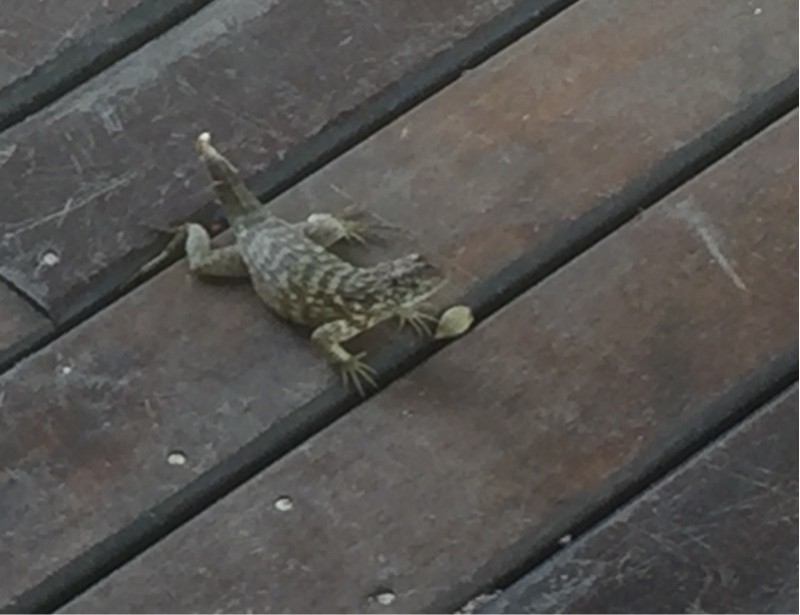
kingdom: Animalia
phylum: Chordata
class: Squamata
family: Leiocephalidae
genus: Leiocephalus
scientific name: Leiocephalus carinatus
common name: Northern curly-tailed lizard
